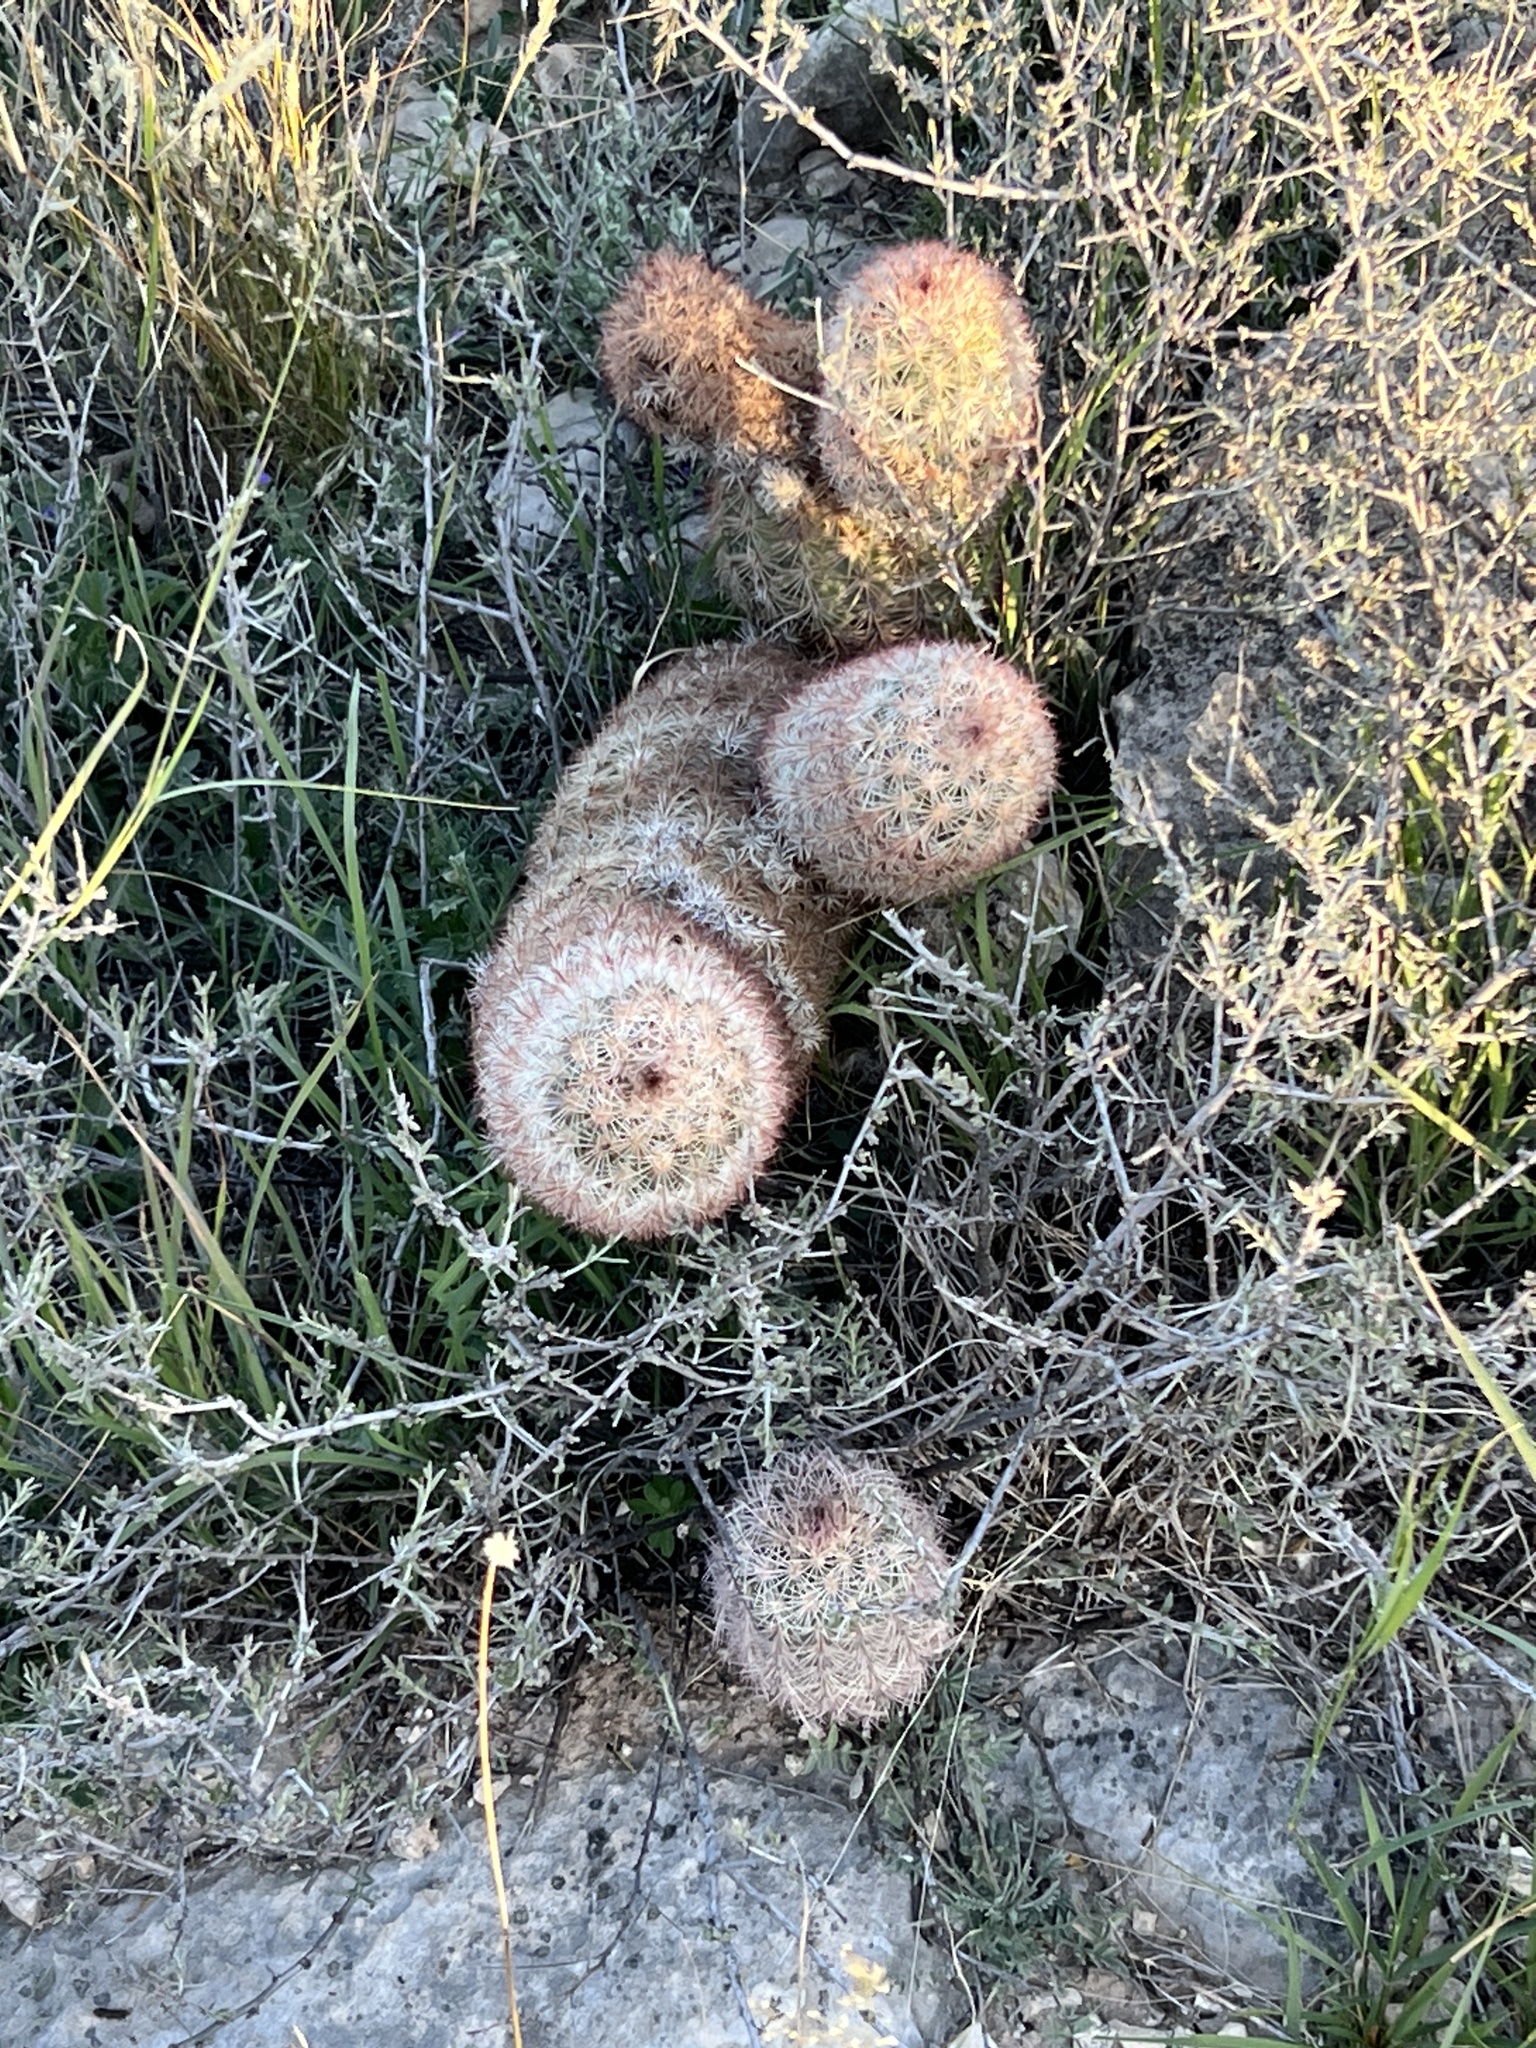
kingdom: Plantae
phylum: Tracheophyta
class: Magnoliopsida
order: Caryophyllales
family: Cactaceae
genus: Echinocereus
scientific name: Echinocereus dasyacanthus
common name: Spiny hedgehog cactus
